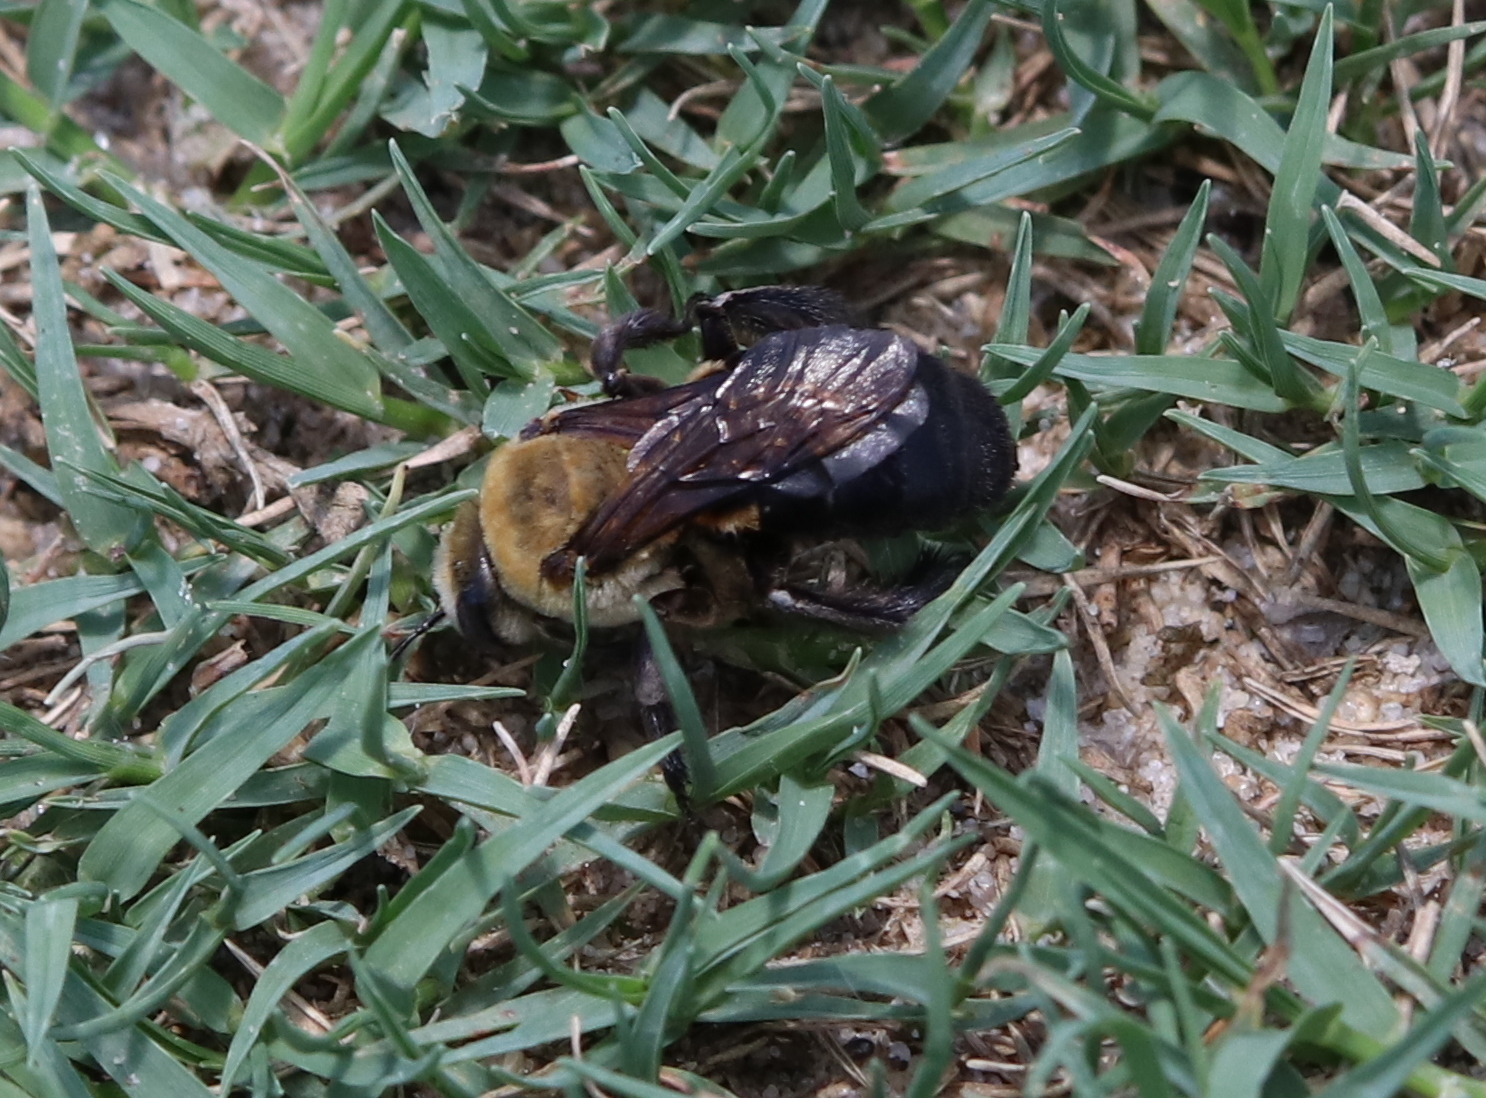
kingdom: Animalia
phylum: Arthropoda
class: Insecta
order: Hymenoptera
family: Apidae
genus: Ptilothrix
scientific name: Ptilothrix bombiformis
